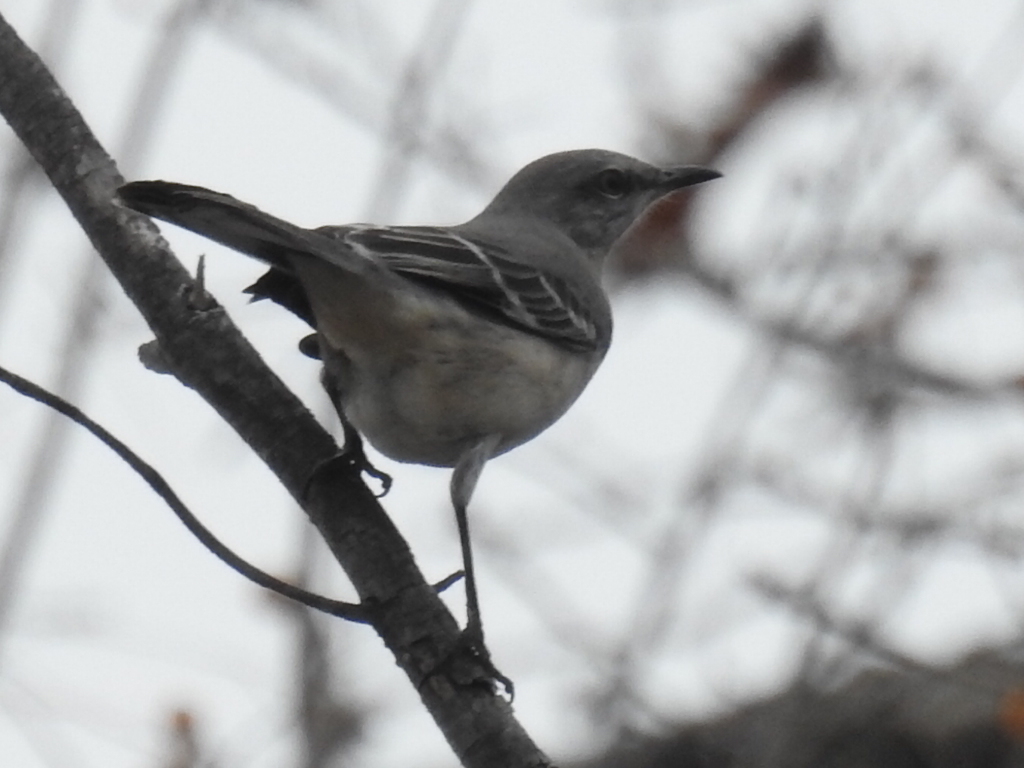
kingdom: Animalia
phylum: Chordata
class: Aves
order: Passeriformes
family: Mimidae
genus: Mimus
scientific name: Mimus polyglottos
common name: Northern mockingbird
